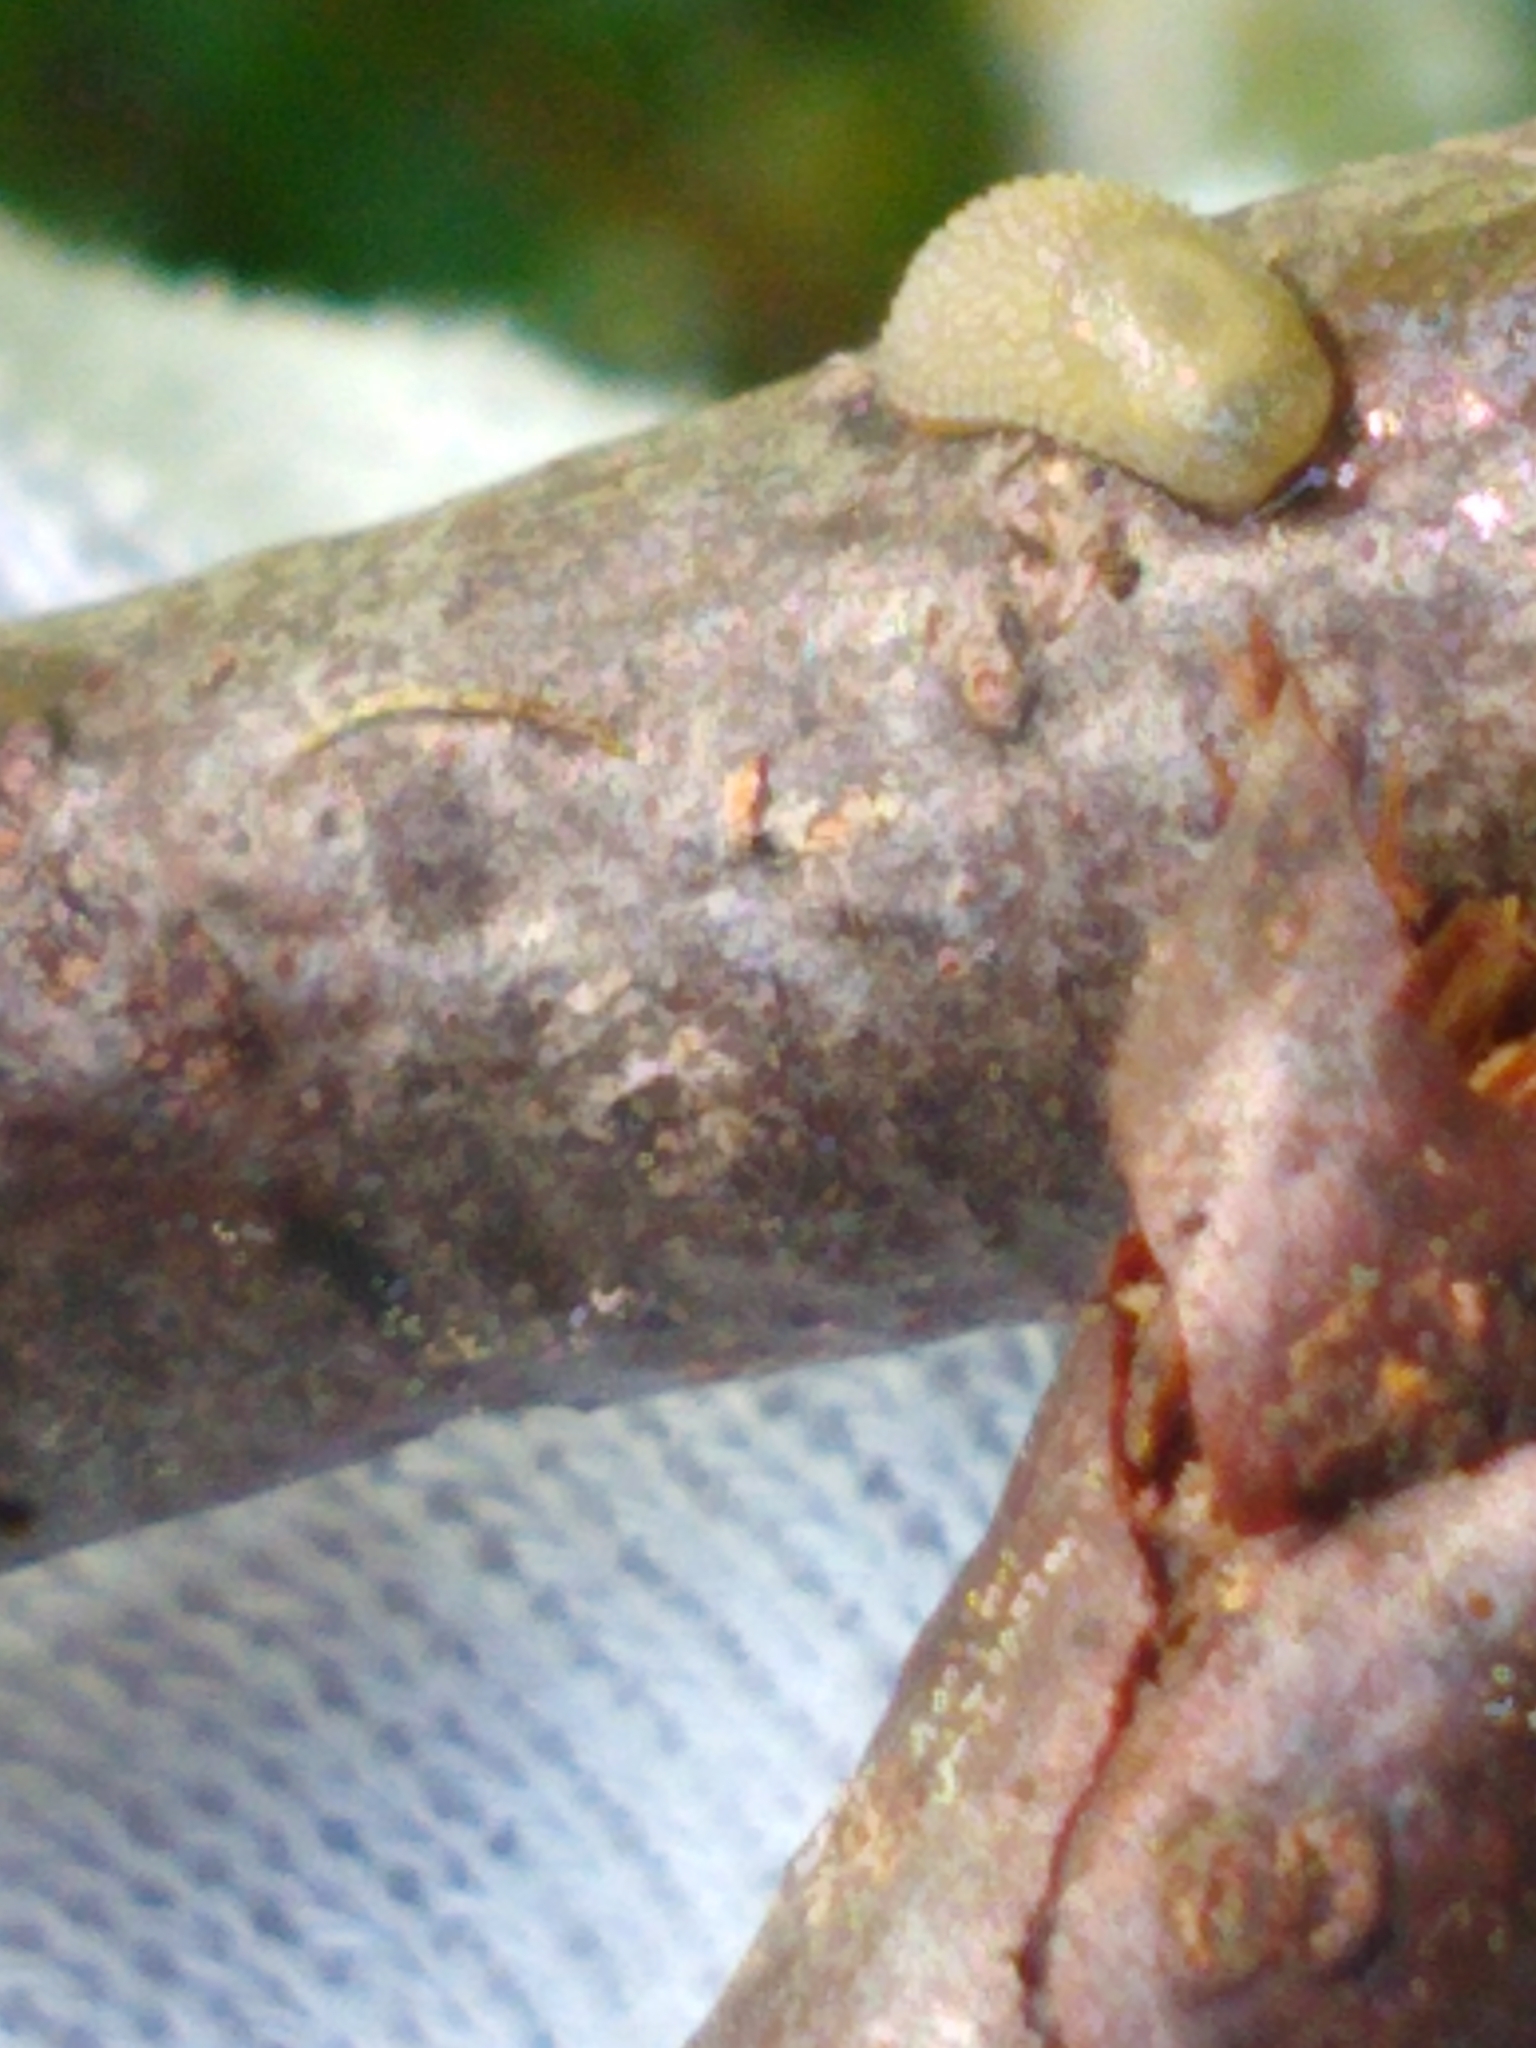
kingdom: Animalia
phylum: Mollusca
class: Gastropoda
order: Stylommatophora
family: Arionidae
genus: Arion
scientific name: Arion intermedius
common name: Hedgehog slug
